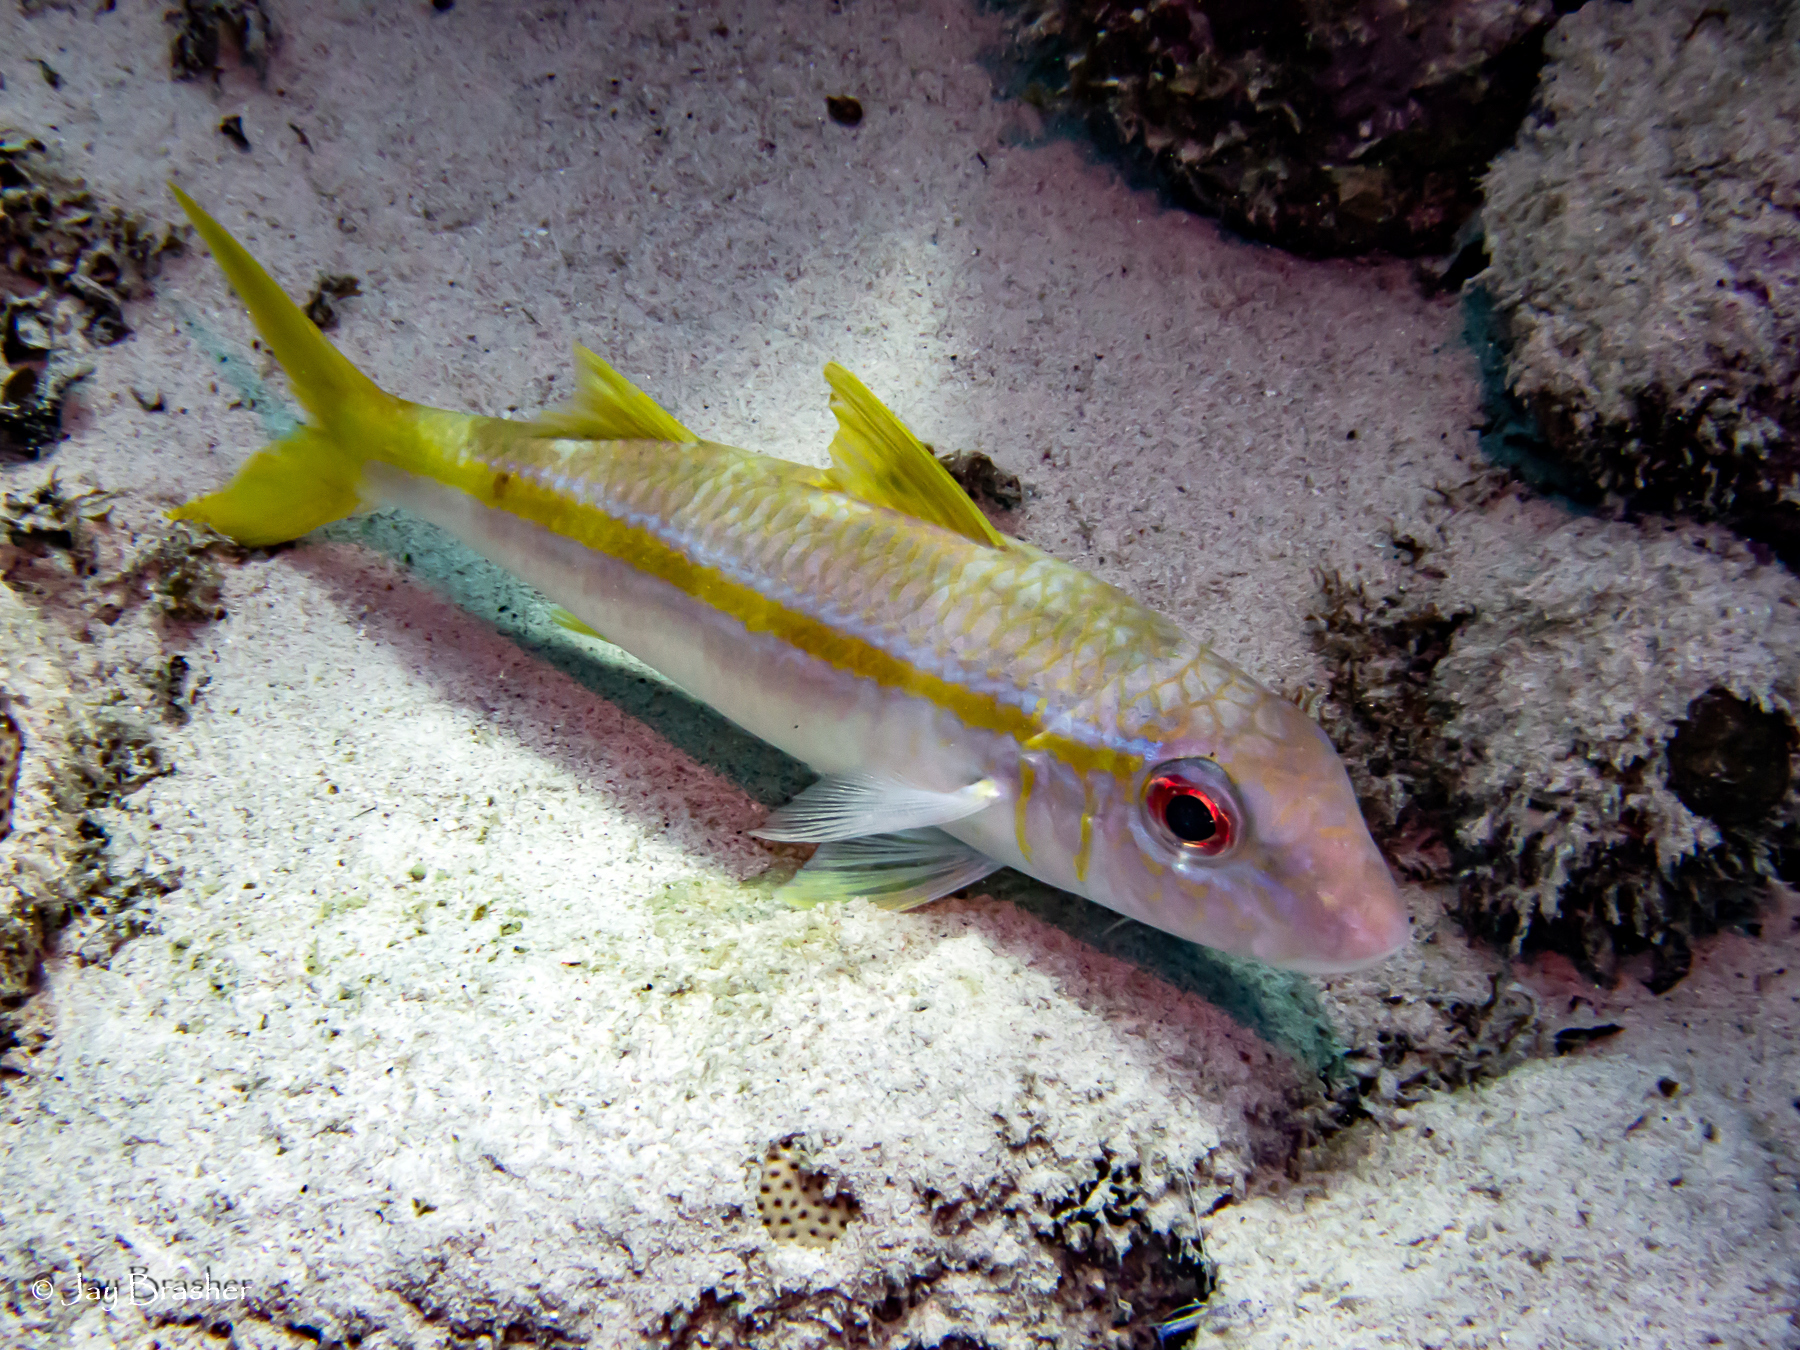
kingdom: Animalia
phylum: Chordata
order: Perciformes
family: Mullidae
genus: Mulloidichthys
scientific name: Mulloidichthys martinicus
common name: Yellow goatfish
